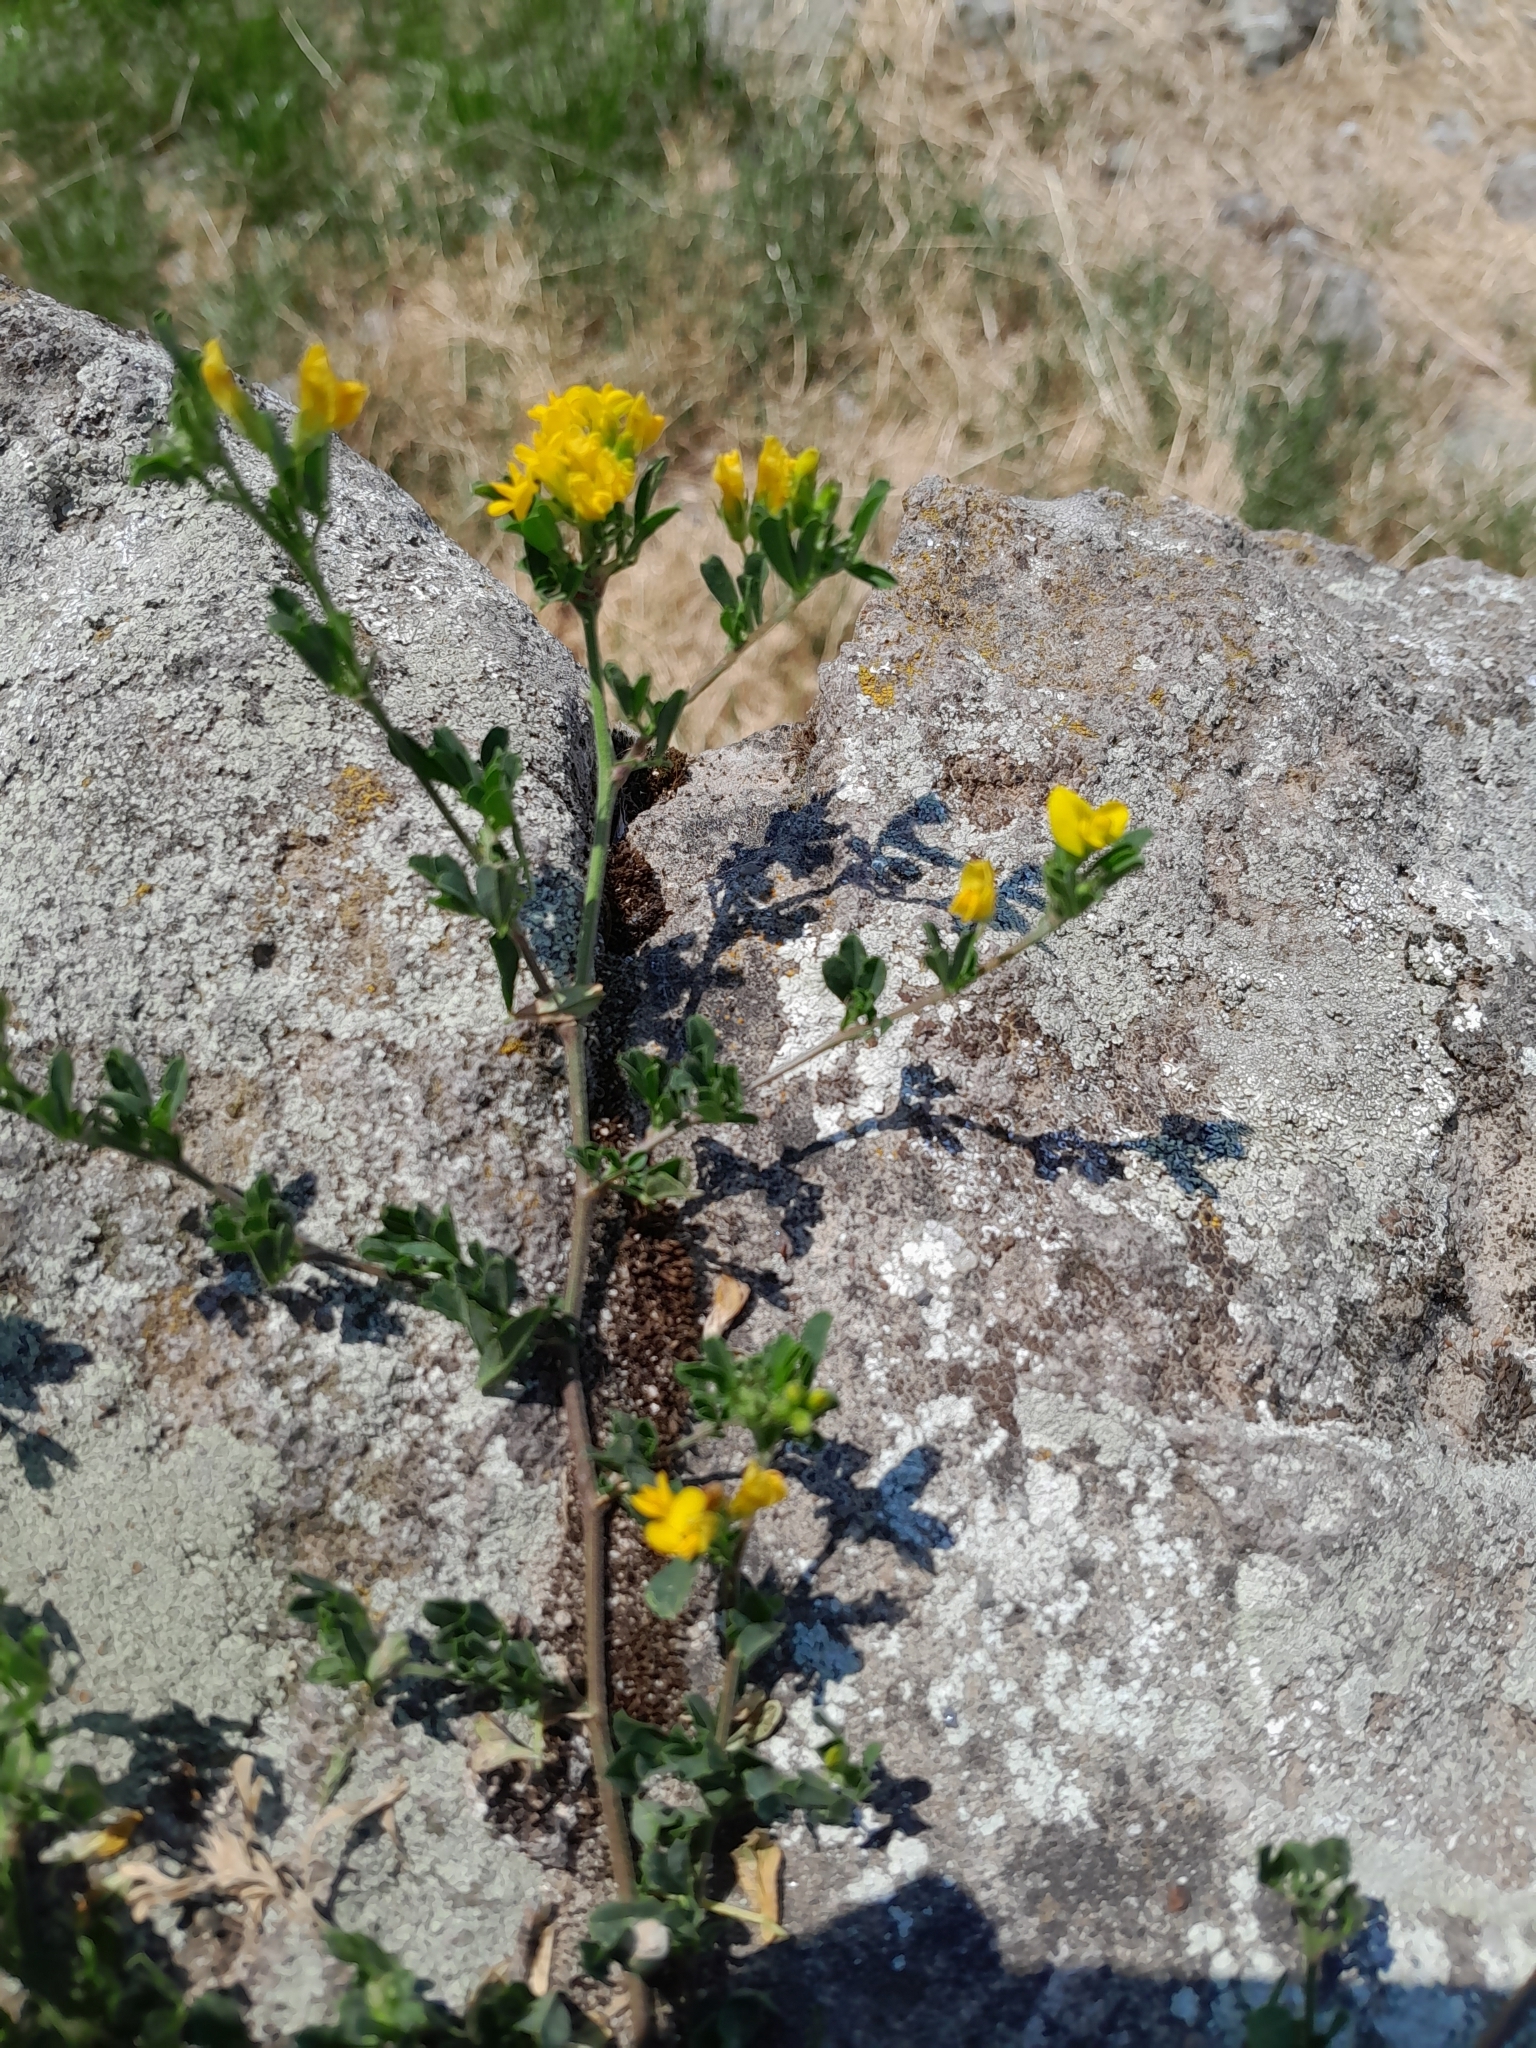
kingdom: Plantae
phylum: Tracheophyta
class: Magnoliopsida
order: Fabales
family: Fabaceae
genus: Medicago
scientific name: Medicago falcata
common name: Sickle medick
